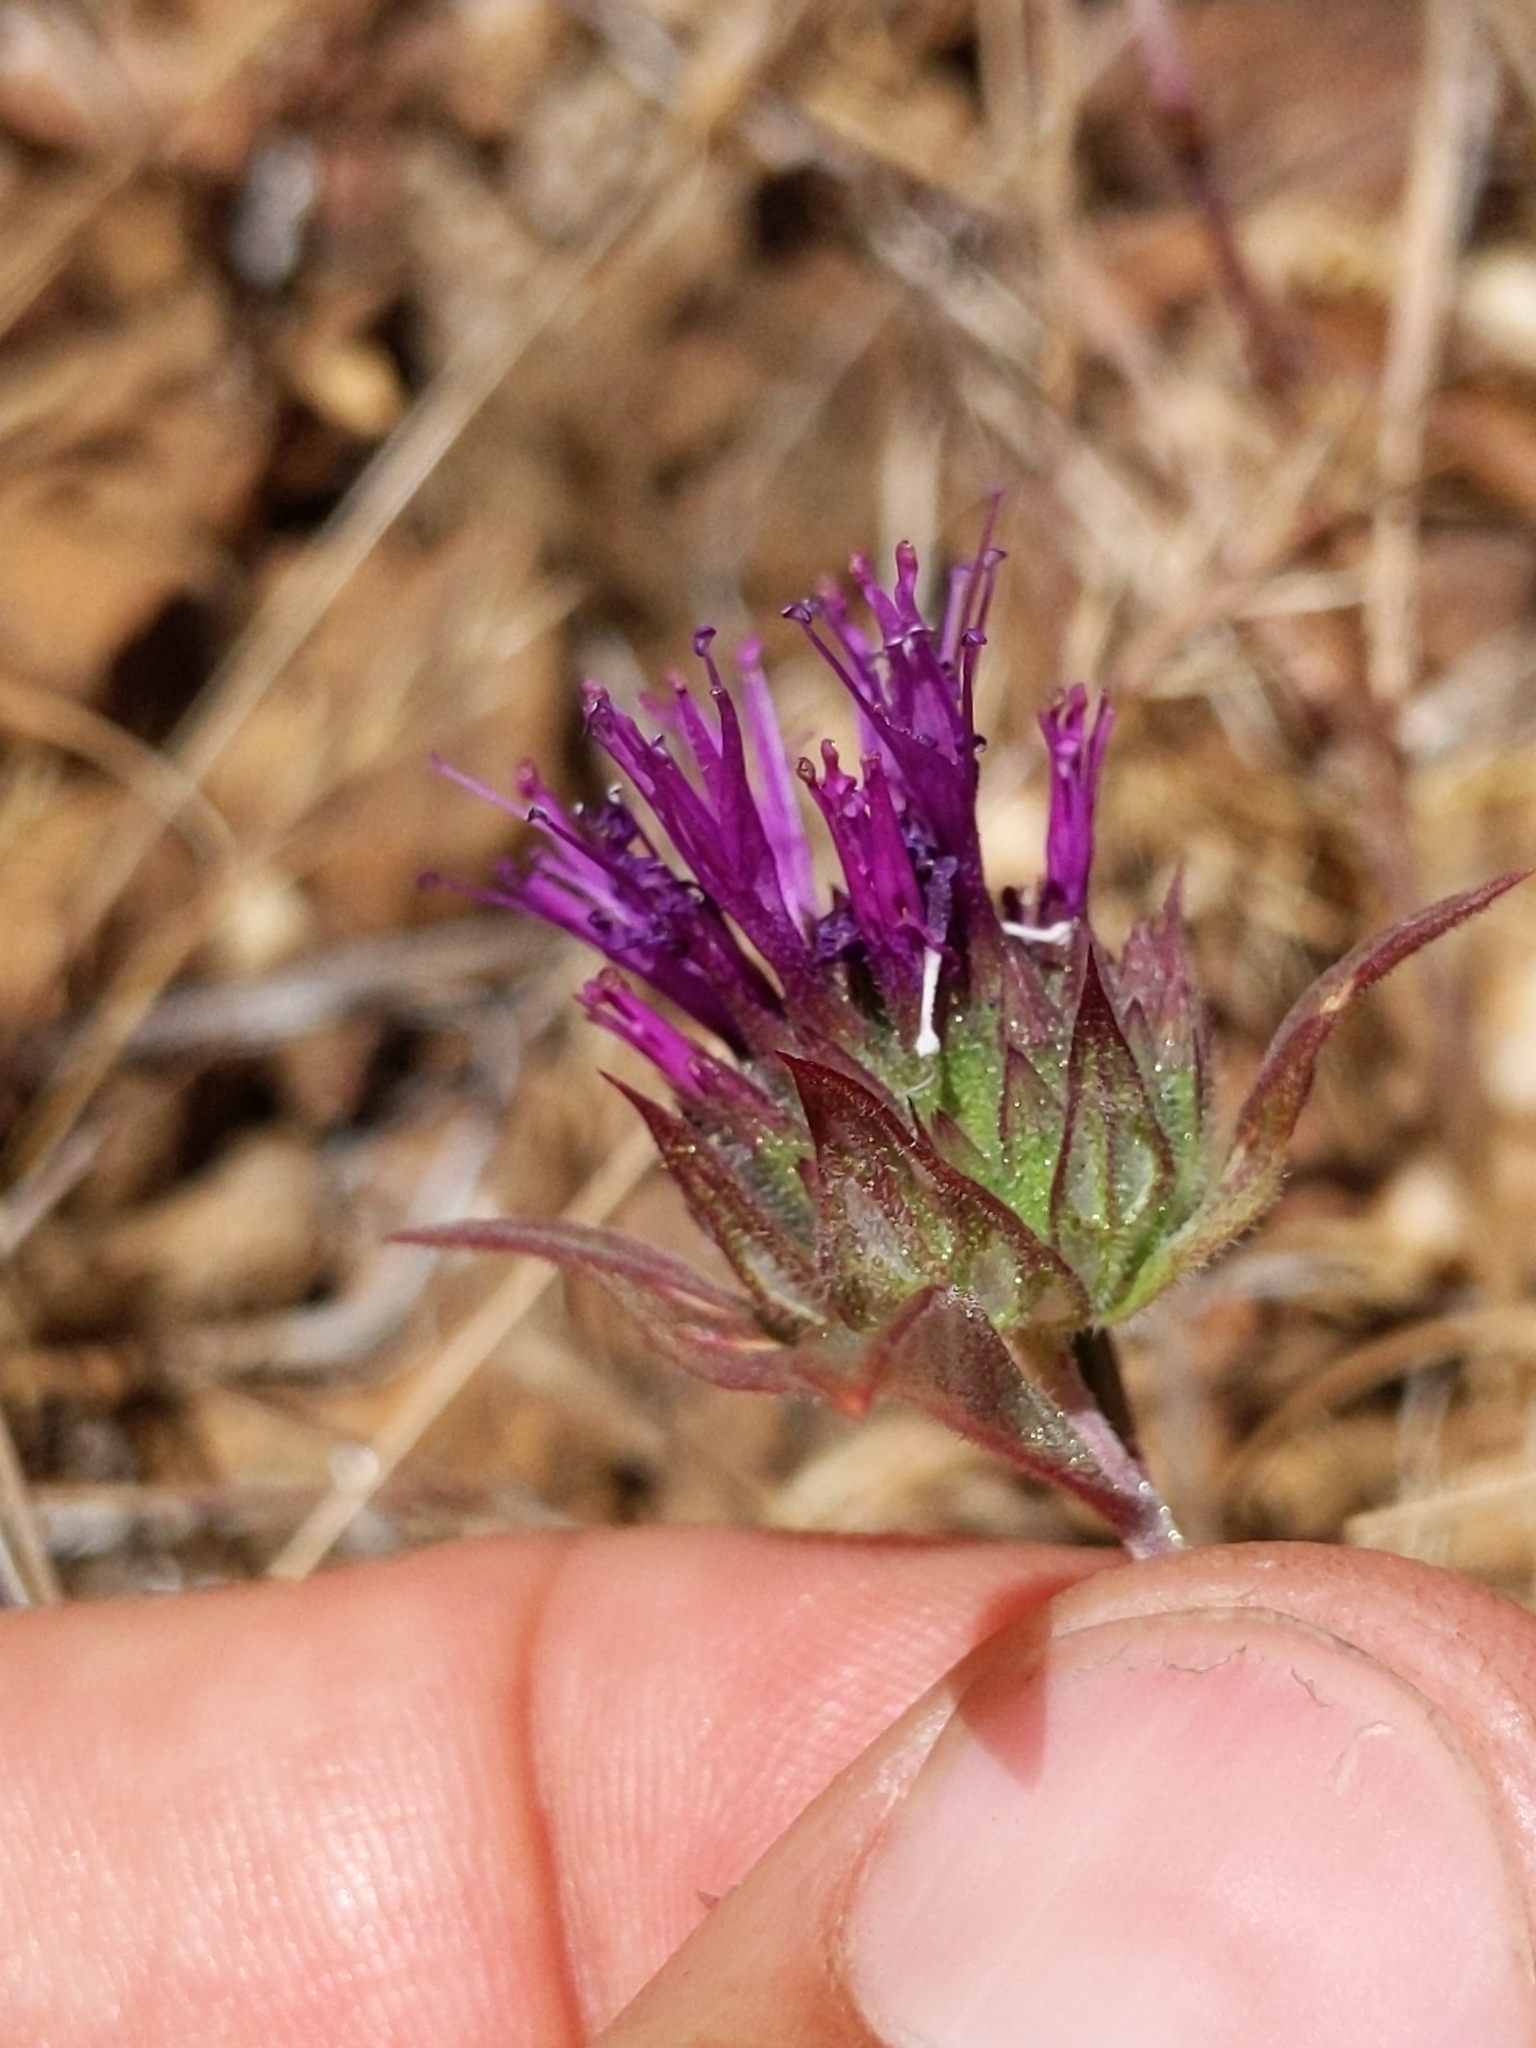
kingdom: Plantae
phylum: Tracheophyta
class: Magnoliopsida
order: Lamiales
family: Lamiaceae
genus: Monardella
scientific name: Monardella douglasii
